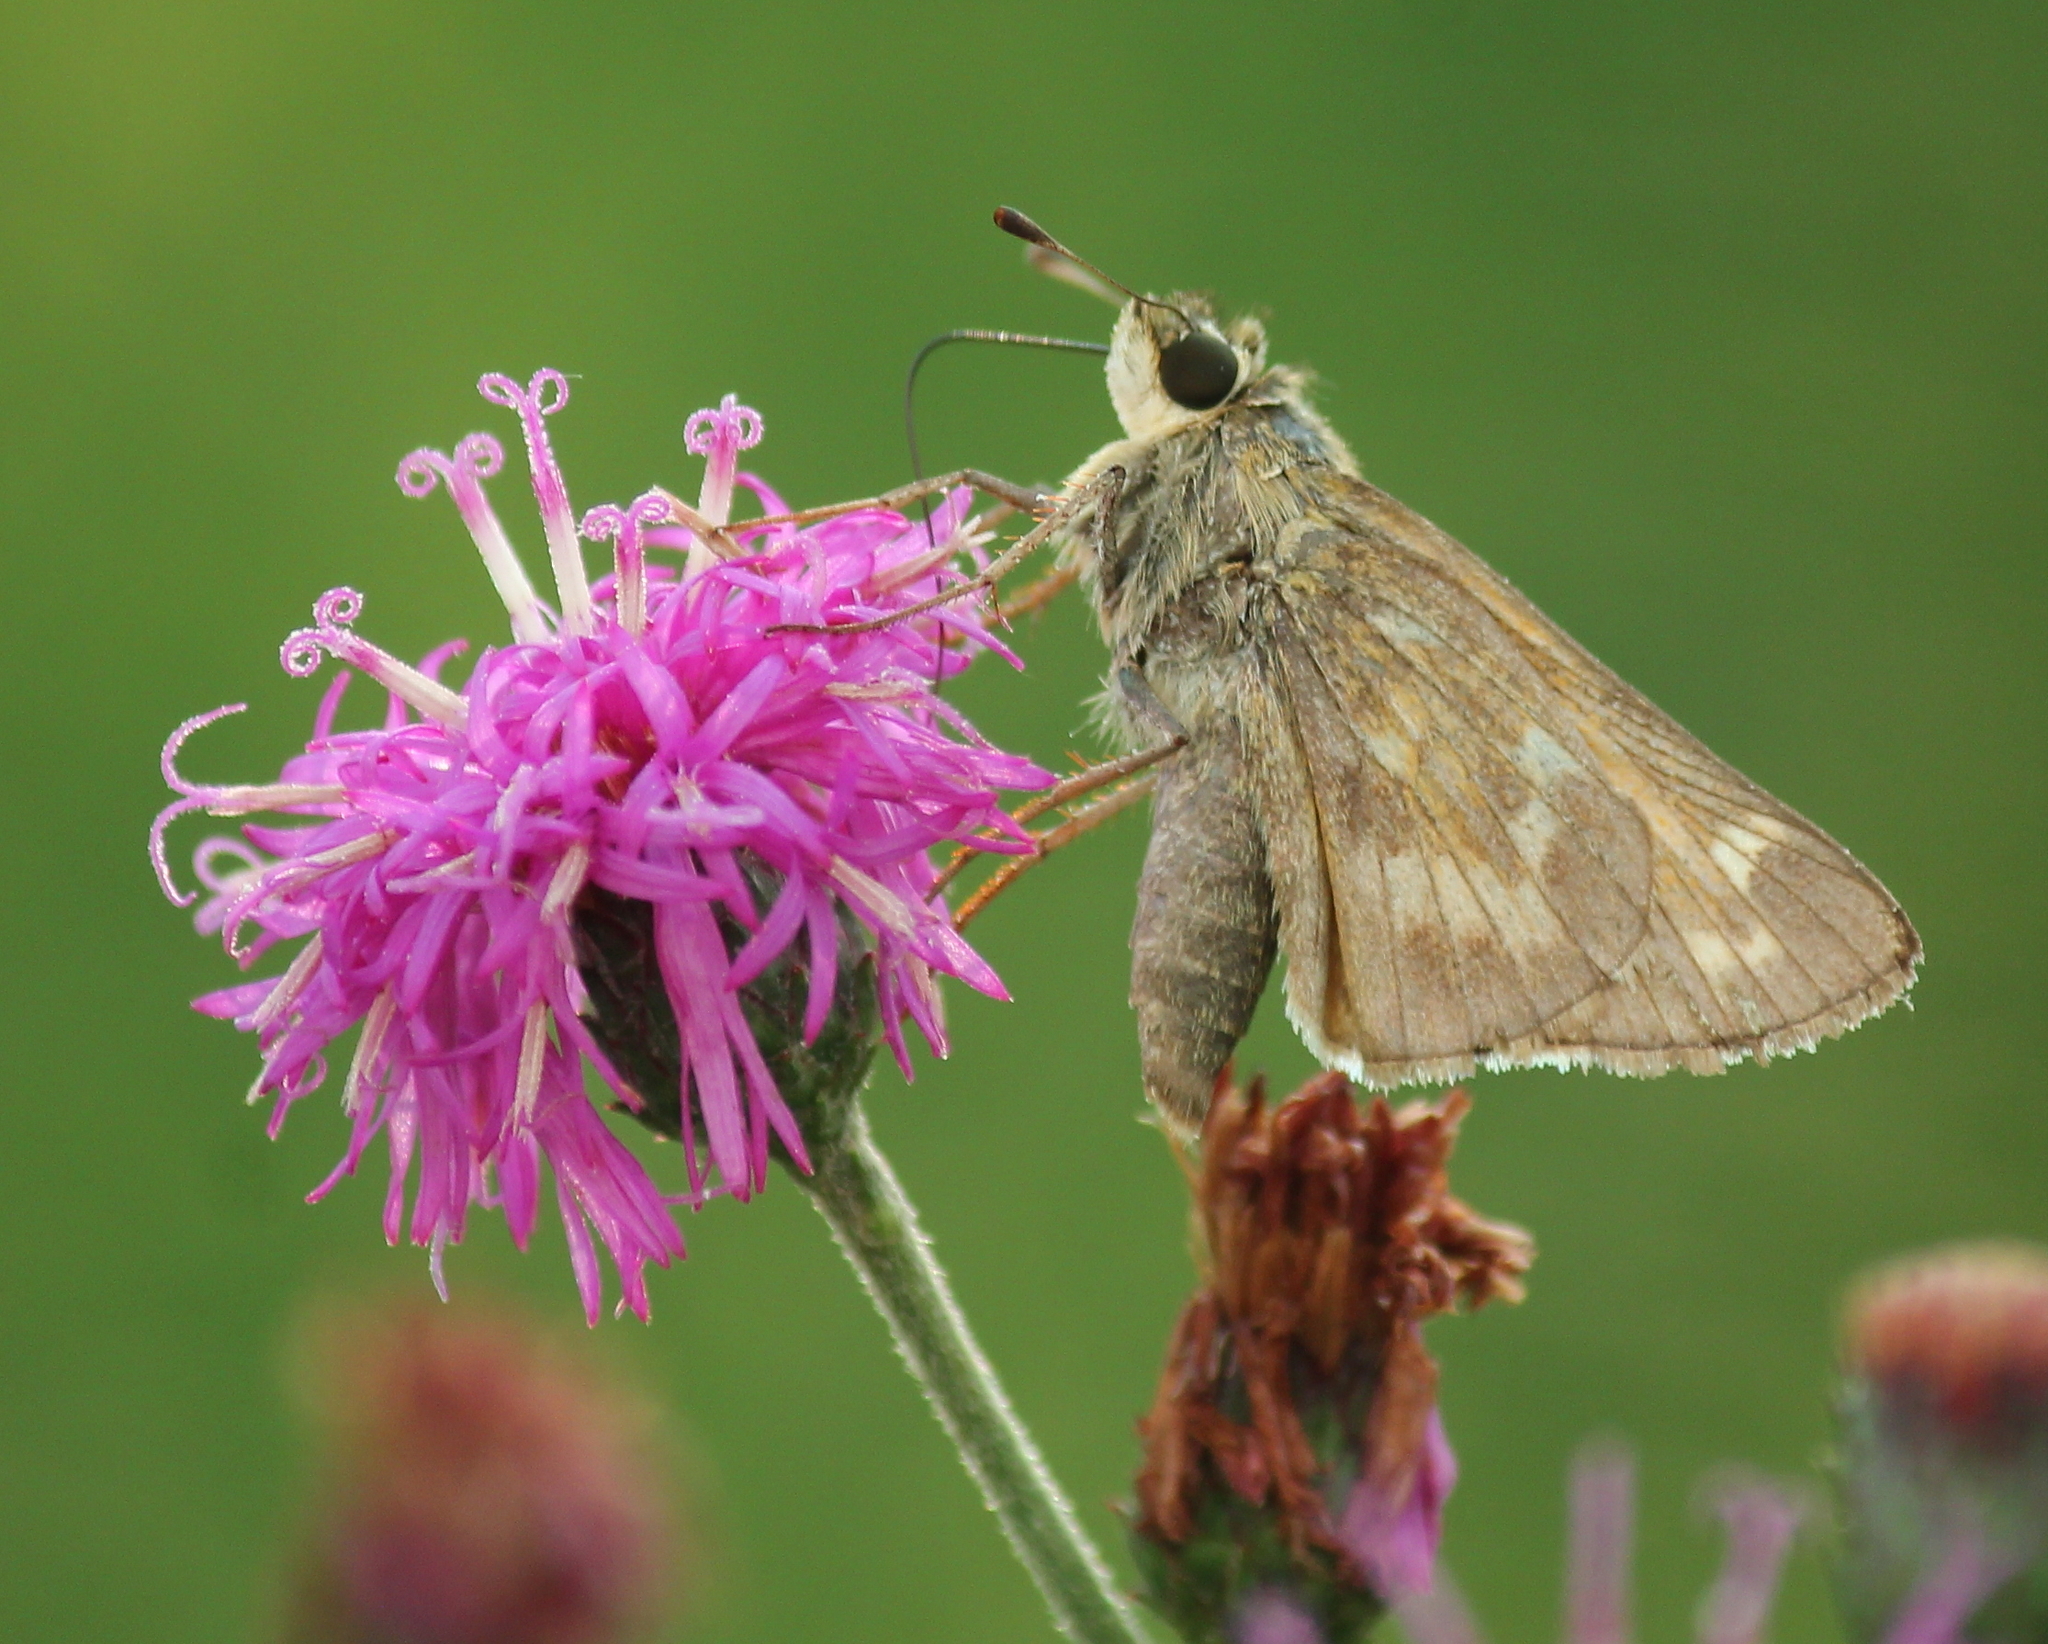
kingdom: Animalia
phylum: Arthropoda
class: Insecta
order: Lepidoptera
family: Hesperiidae
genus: Atalopedes
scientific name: Atalopedes
